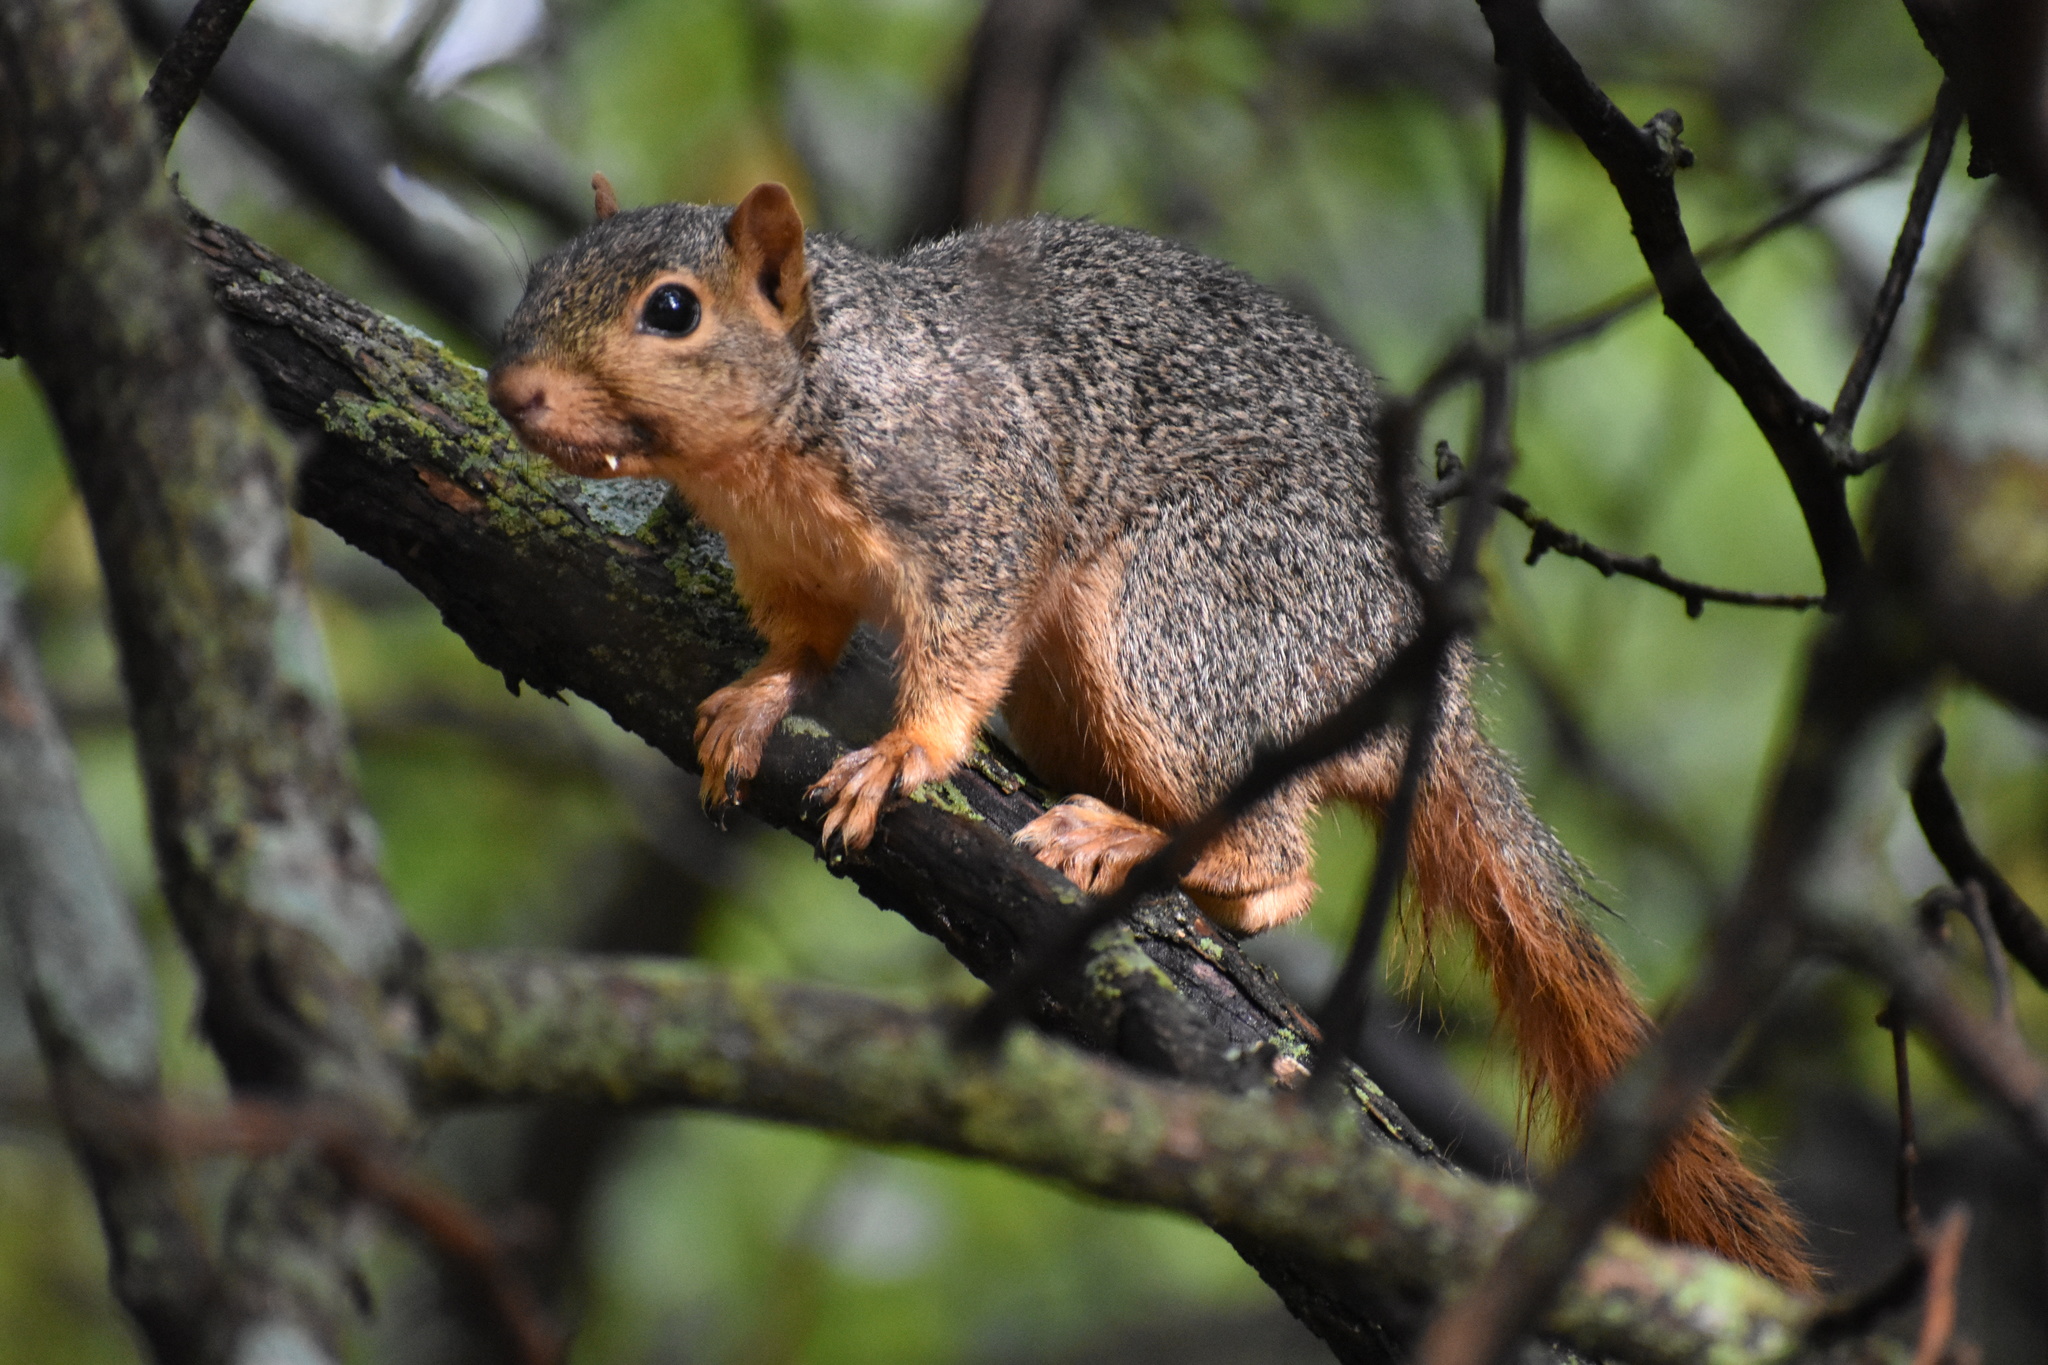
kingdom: Animalia
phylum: Chordata
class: Mammalia
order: Rodentia
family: Sciuridae
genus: Sciurus
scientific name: Sciurus niger
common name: Fox squirrel
